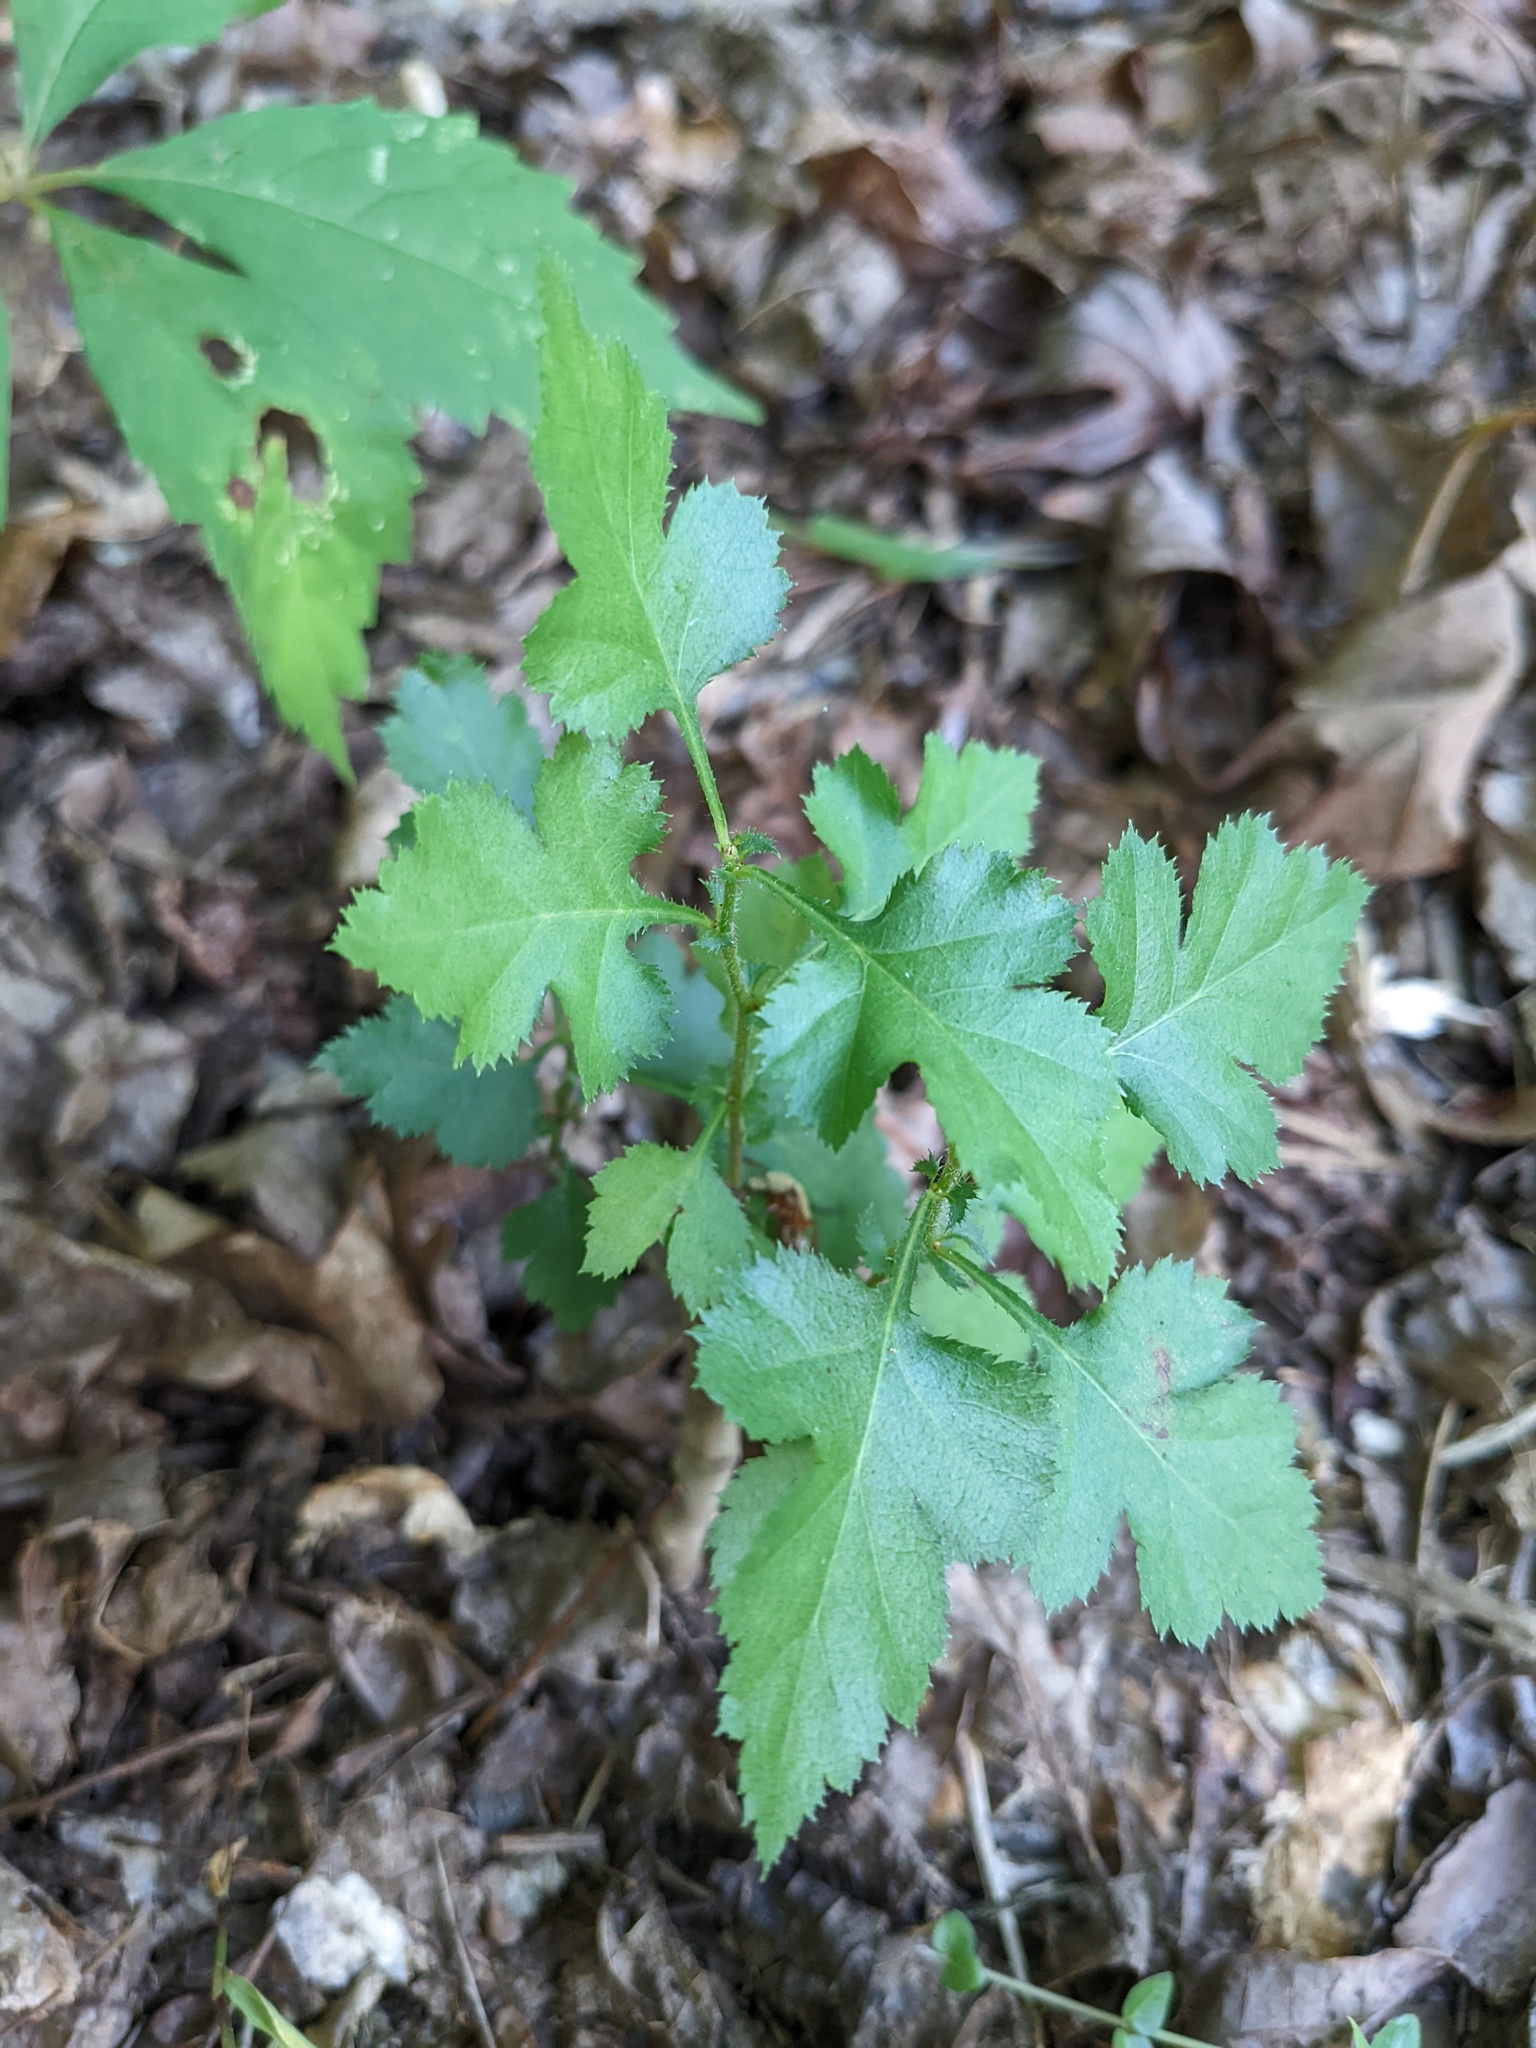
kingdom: Plantae
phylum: Tracheophyta
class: Magnoliopsida
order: Rosales
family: Rosaceae
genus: Crataegus
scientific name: Crataegus marshallii
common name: Parsley-hawthorn
